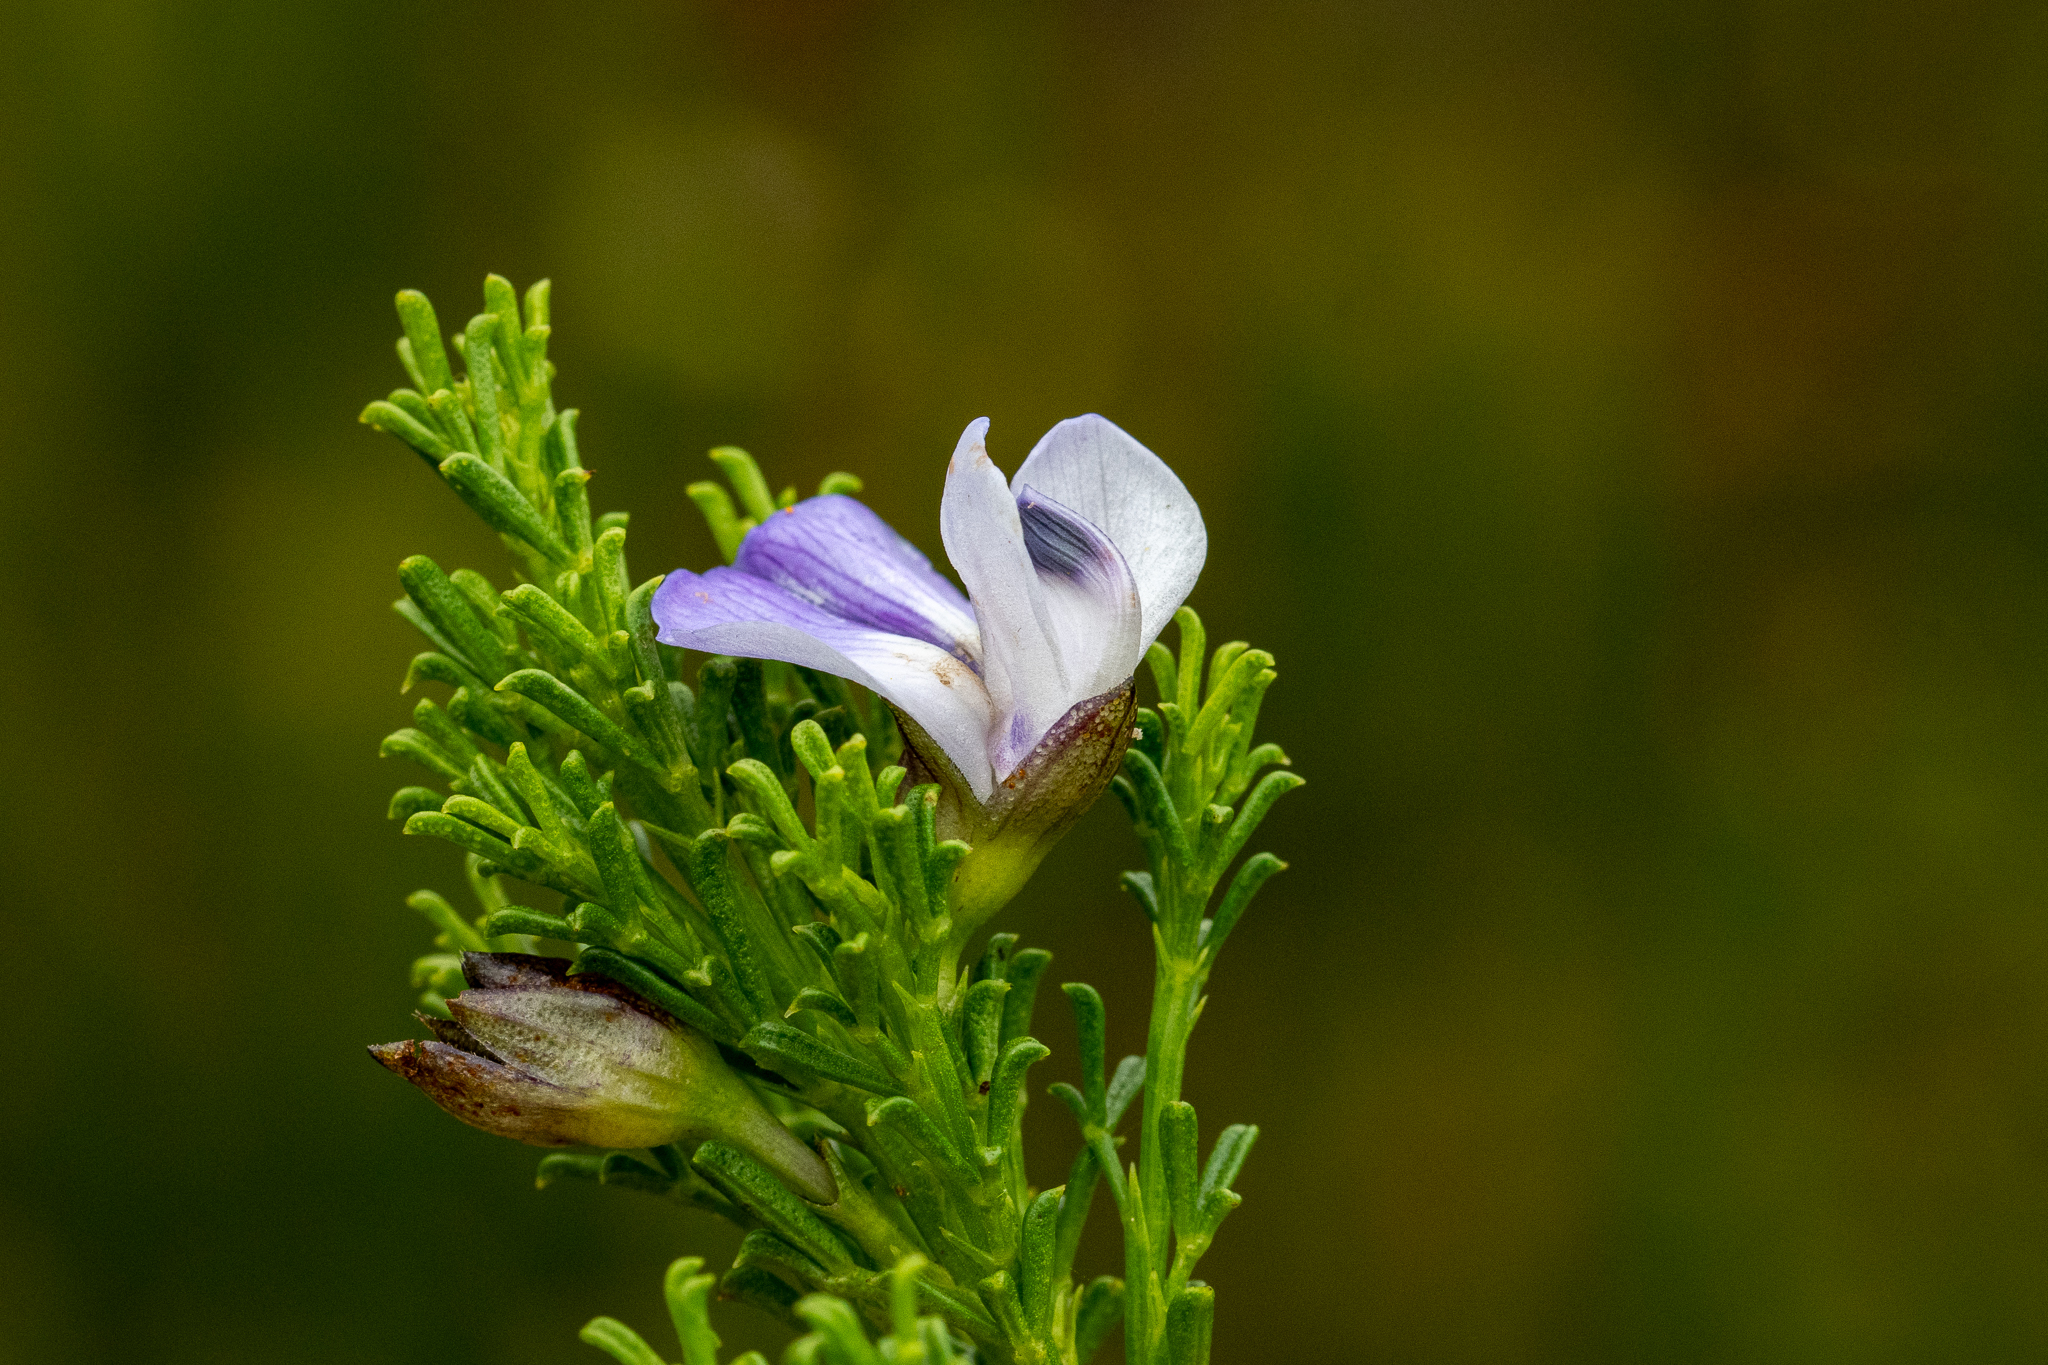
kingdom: Plantae
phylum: Tracheophyta
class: Magnoliopsida
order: Fabales
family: Fabaceae
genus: Psoralea
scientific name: Psoralea aculeata
